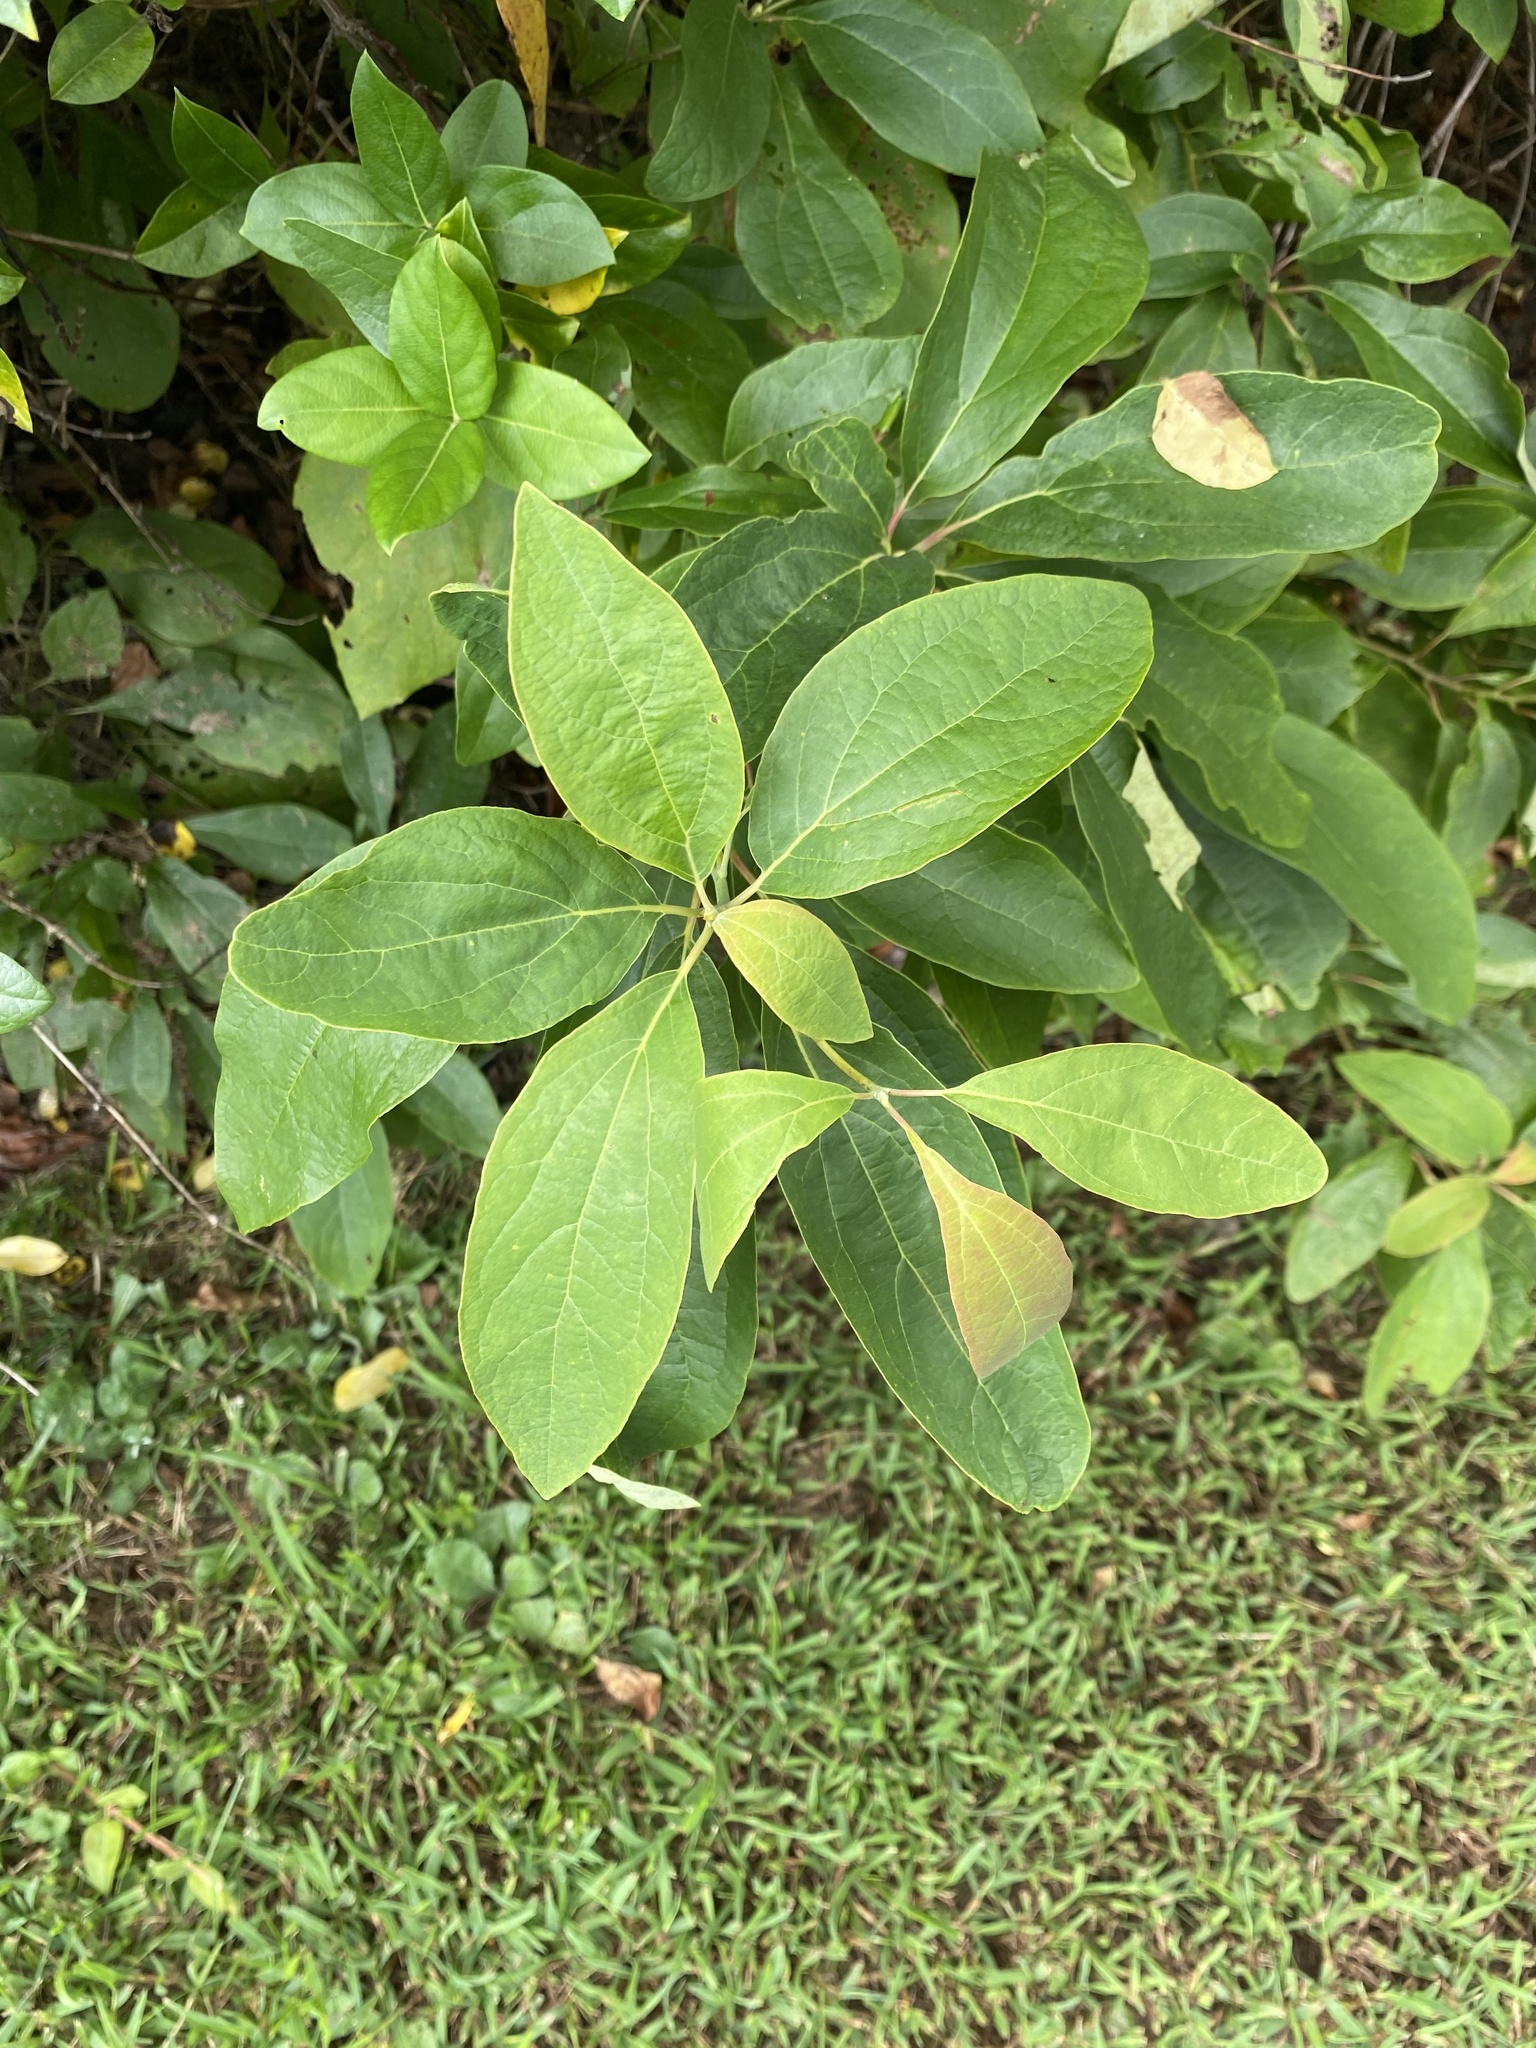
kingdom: Plantae
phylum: Tracheophyta
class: Magnoliopsida
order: Laurales
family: Lauraceae
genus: Sassafras
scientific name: Sassafras albidum
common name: Sassafras
